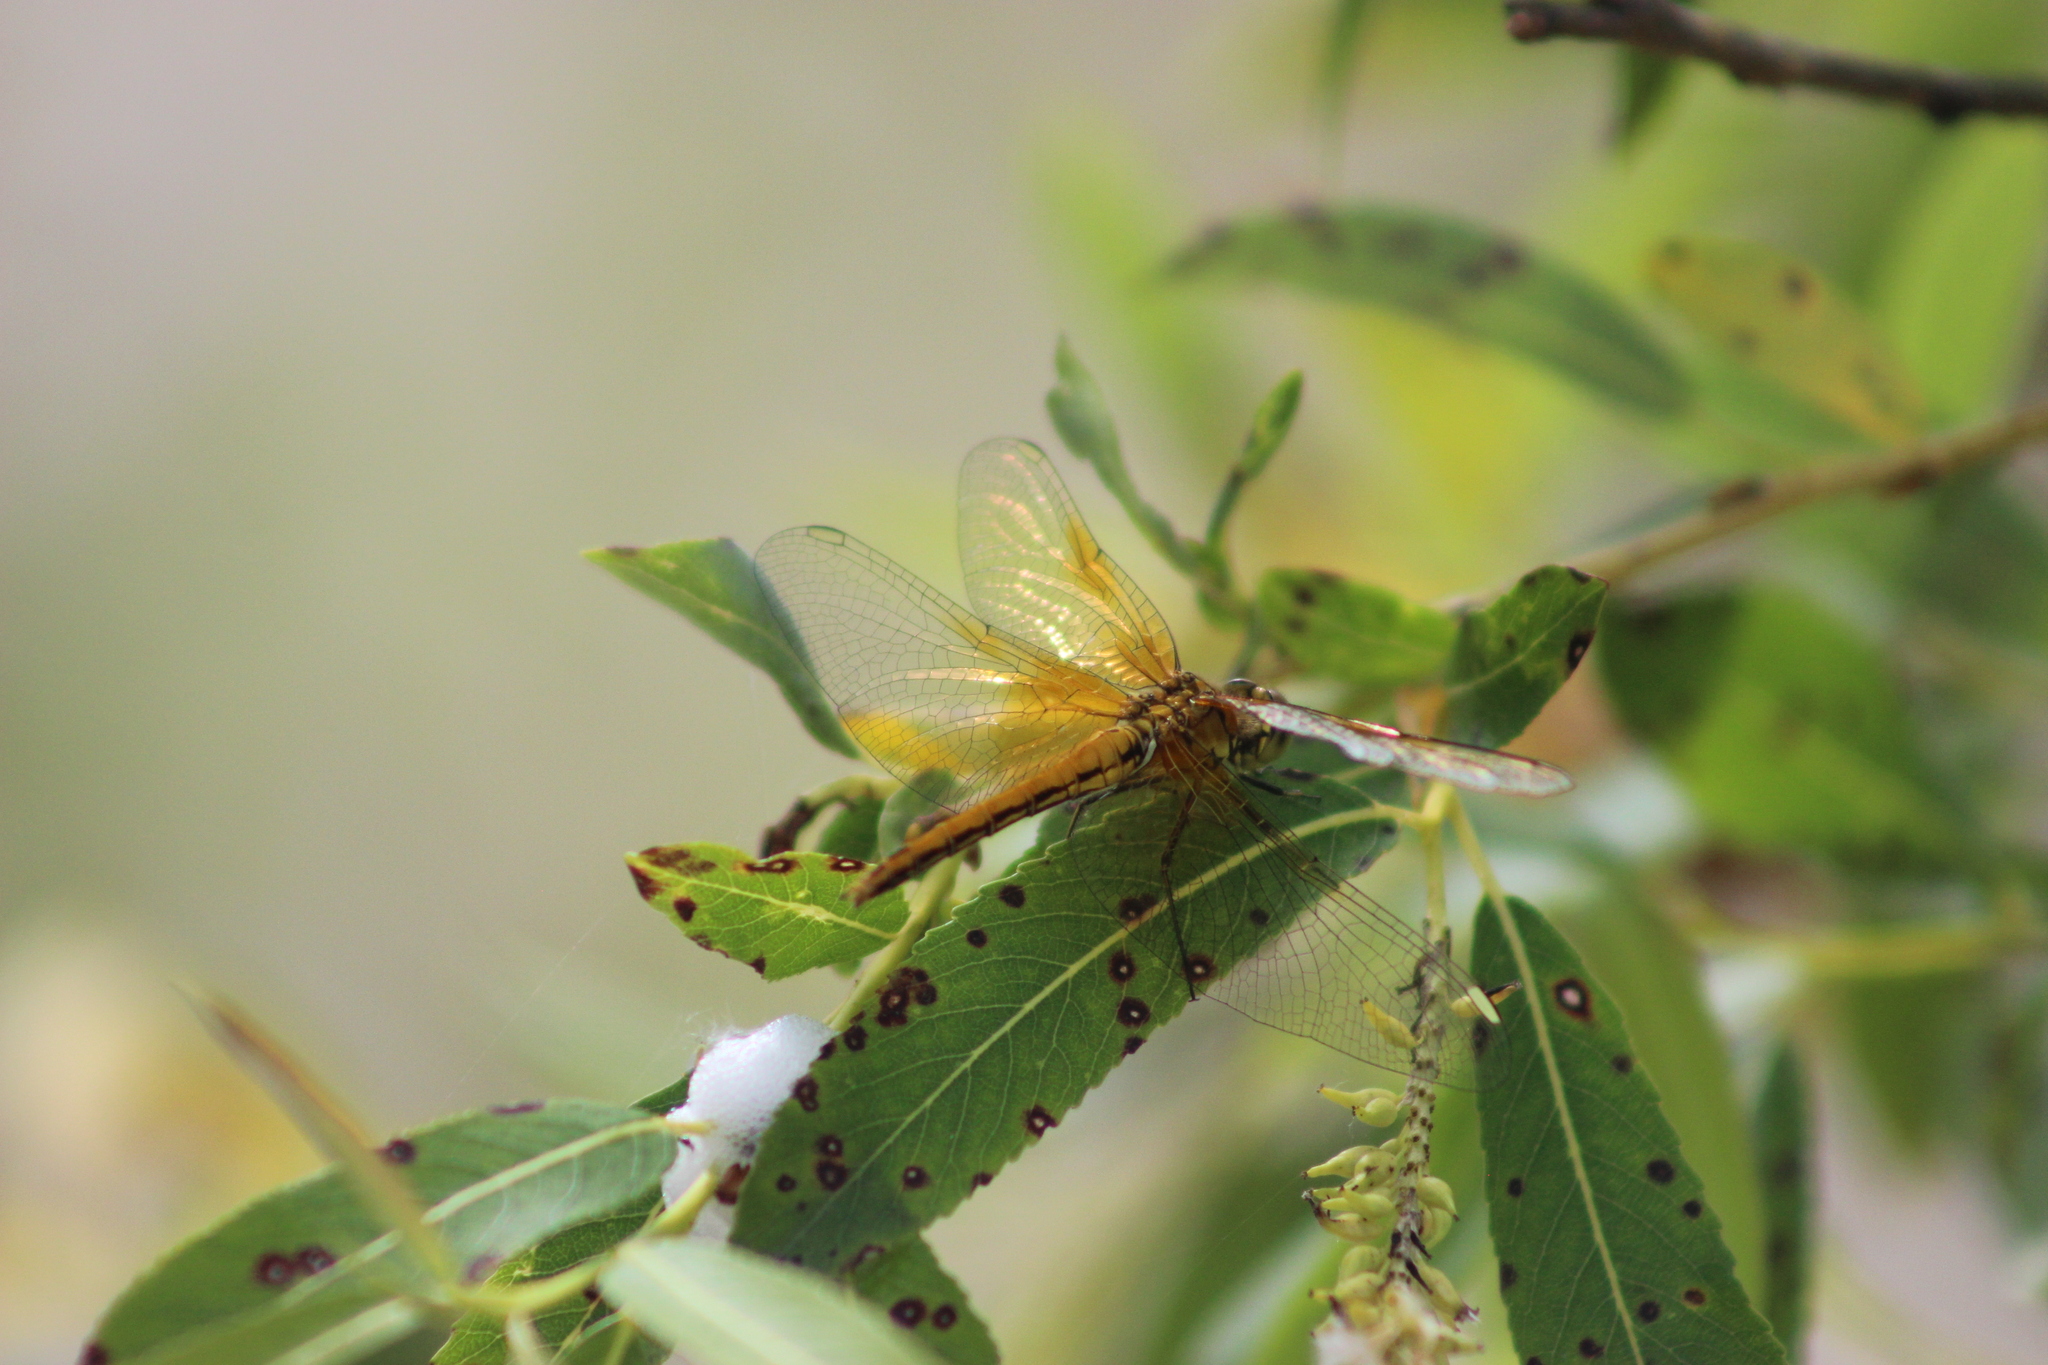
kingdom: Animalia
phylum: Arthropoda
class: Insecta
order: Odonata
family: Libellulidae
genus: Sympetrum
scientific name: Sympetrum flaveolum
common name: Yellow-winged darter
